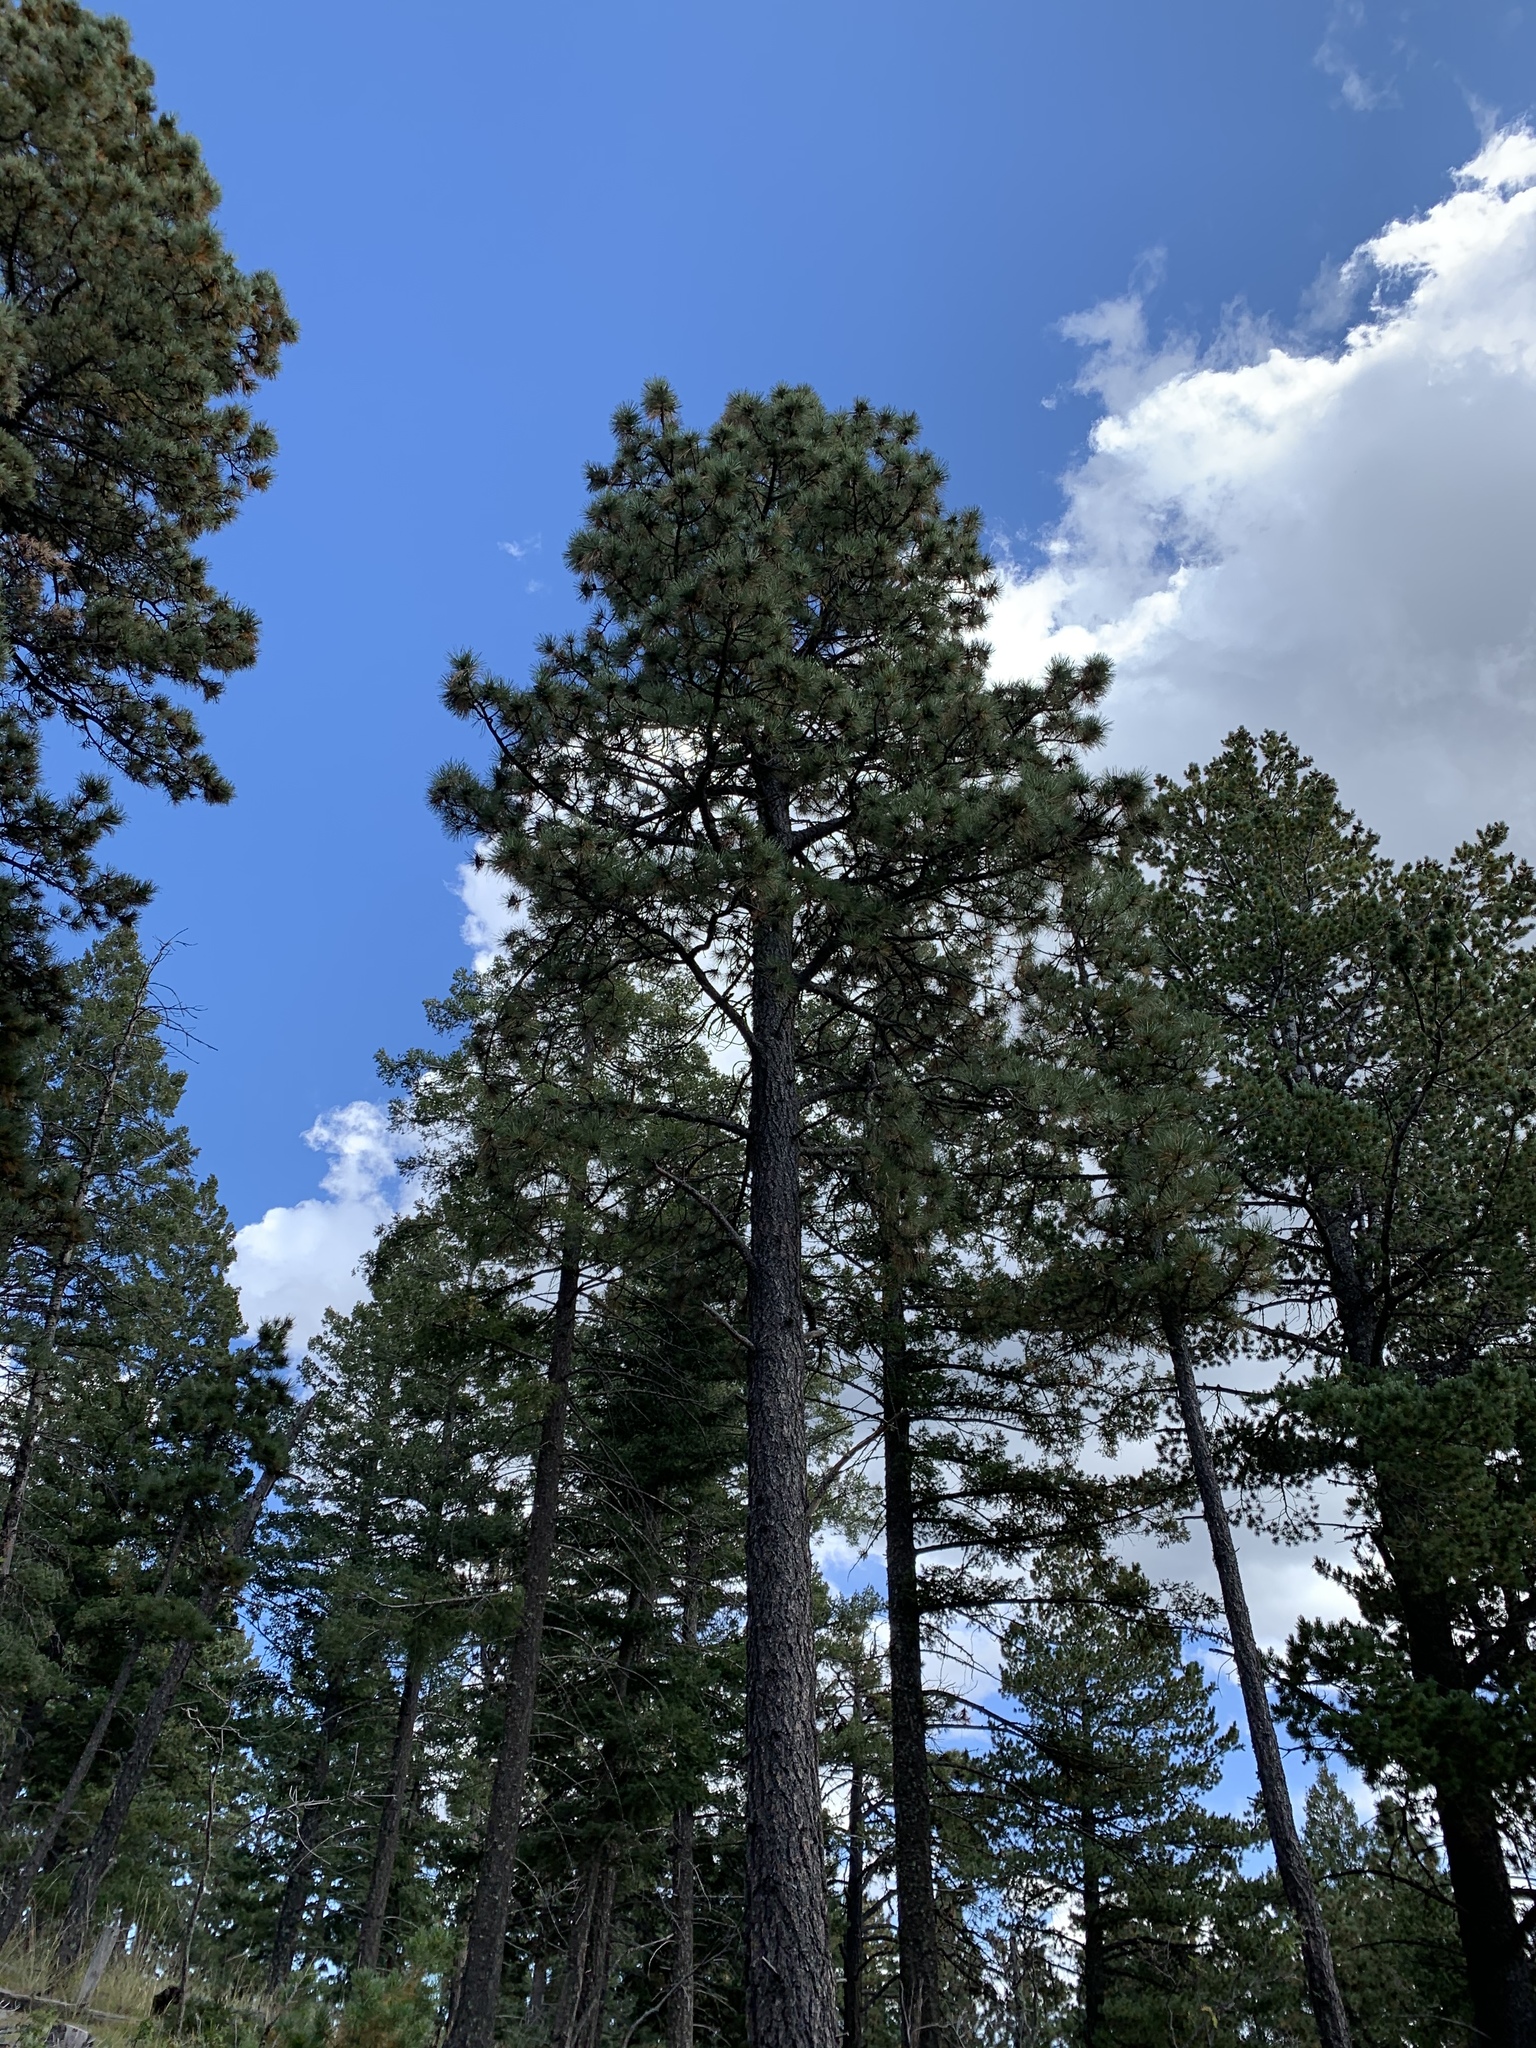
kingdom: Plantae
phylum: Tracheophyta
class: Pinopsida
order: Pinales
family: Pinaceae
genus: Pinus
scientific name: Pinus ponderosa
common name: Western yellow-pine
